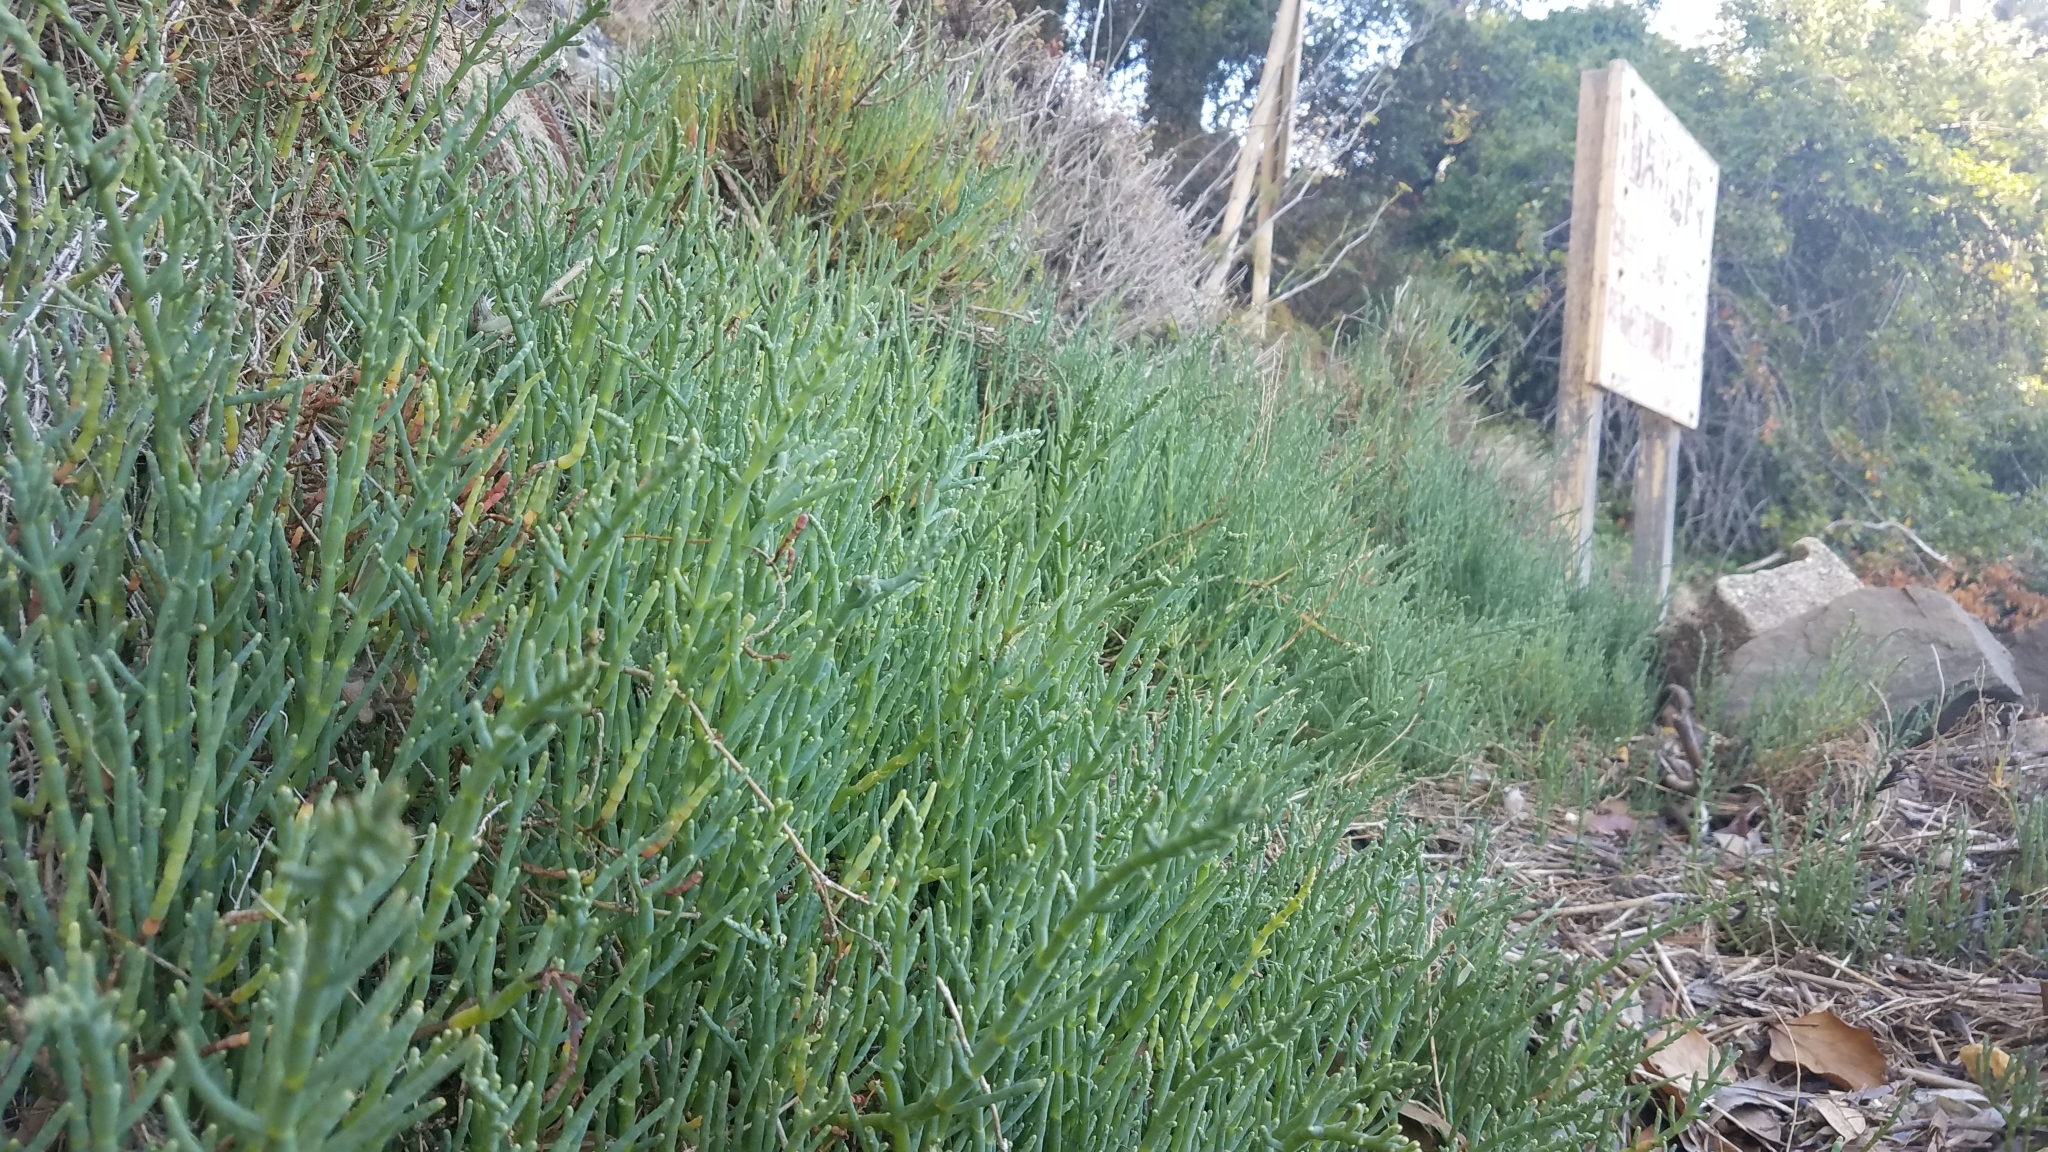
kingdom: Plantae
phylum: Tracheophyta
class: Magnoliopsida
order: Caryophyllales
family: Amaranthaceae
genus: Salicornia
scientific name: Salicornia pacifica
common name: Pacific glasswort
